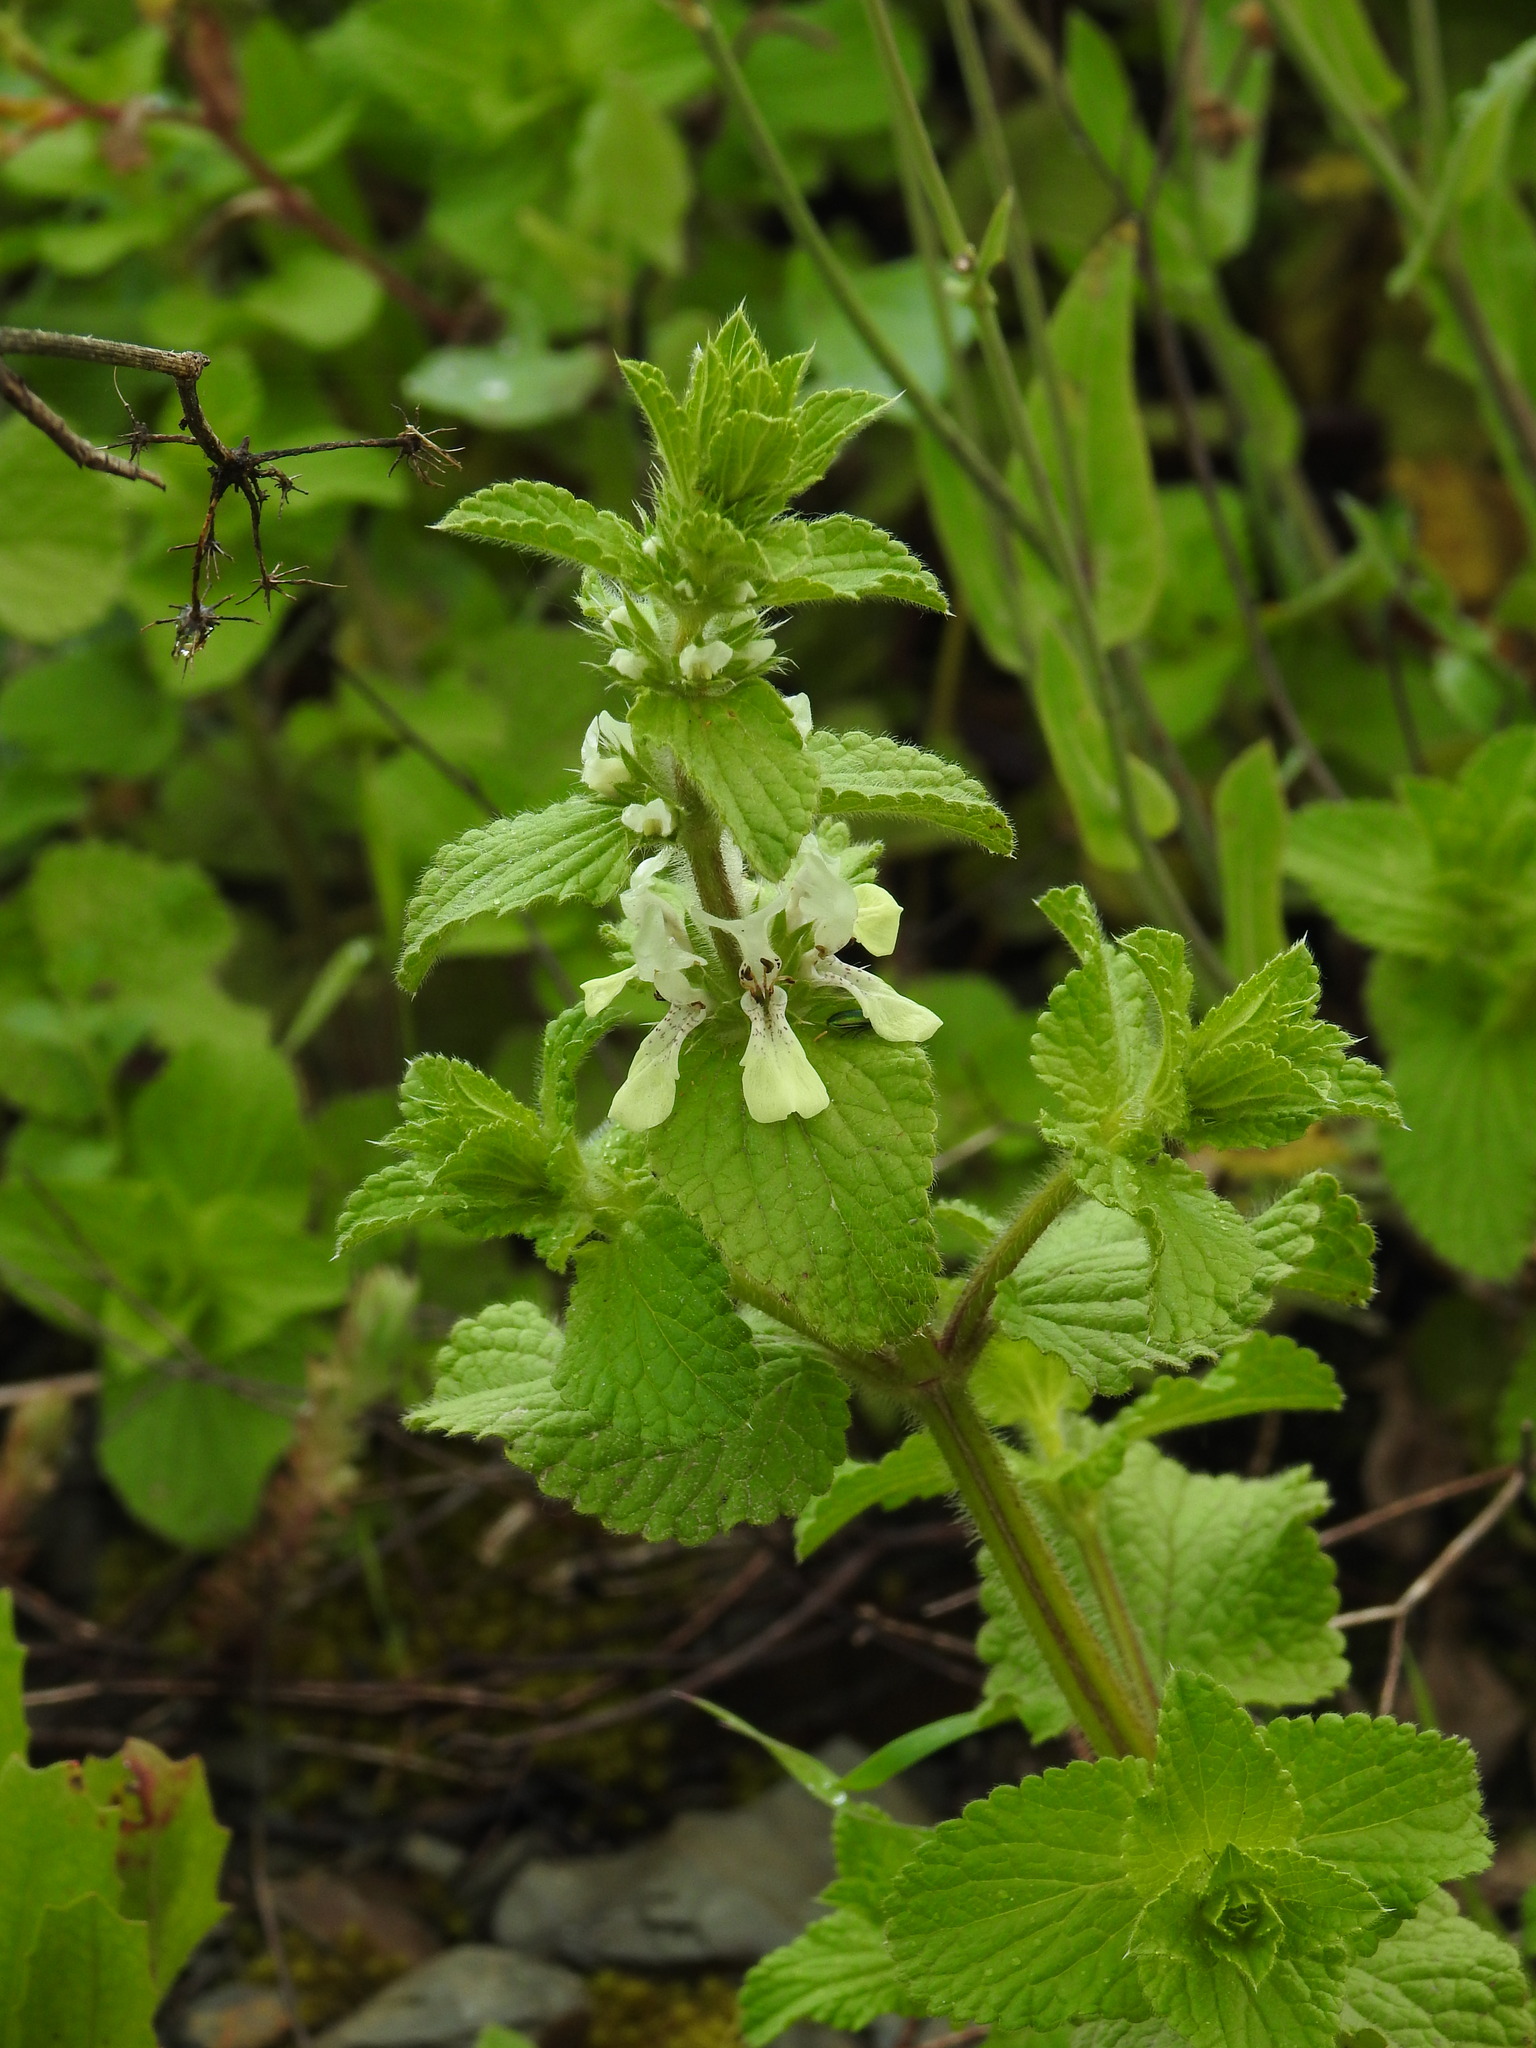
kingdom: Plantae
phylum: Tracheophyta
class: Magnoliopsida
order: Lamiales
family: Lamiaceae
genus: Stachys
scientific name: Stachys ocymastrum
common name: Italian hedgenettle
